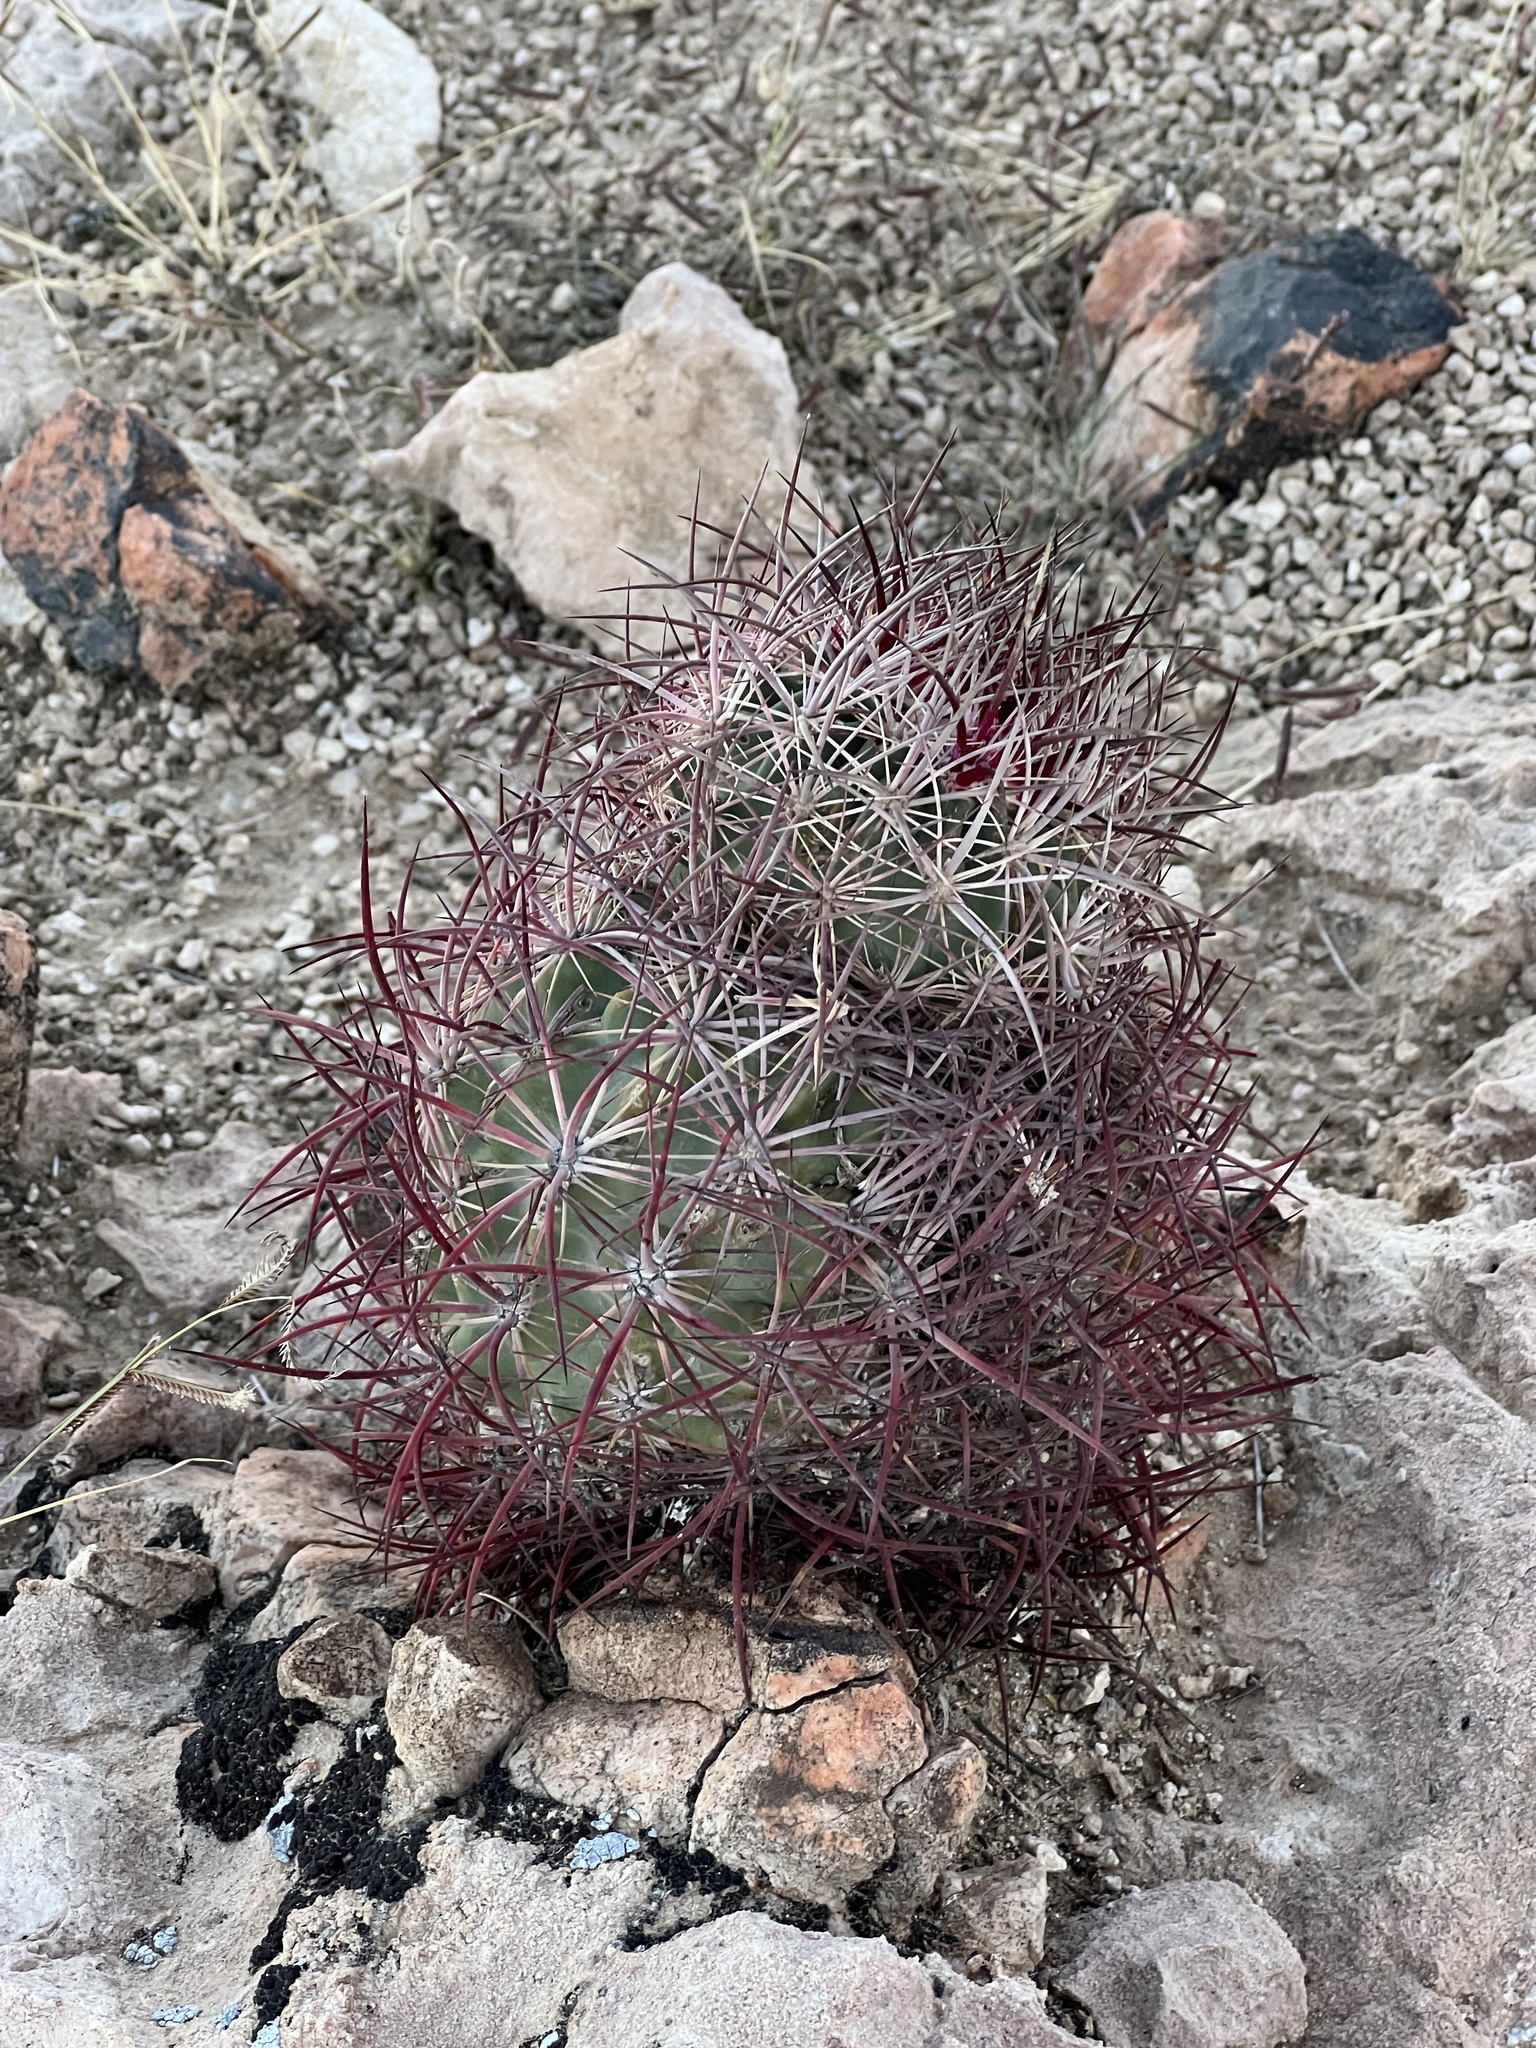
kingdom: Plantae
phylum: Tracheophyta
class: Magnoliopsida
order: Caryophyllales
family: Cactaceae
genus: Sclerocactus
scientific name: Sclerocactus johnsonii
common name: Eight-spine fishhook cactus
